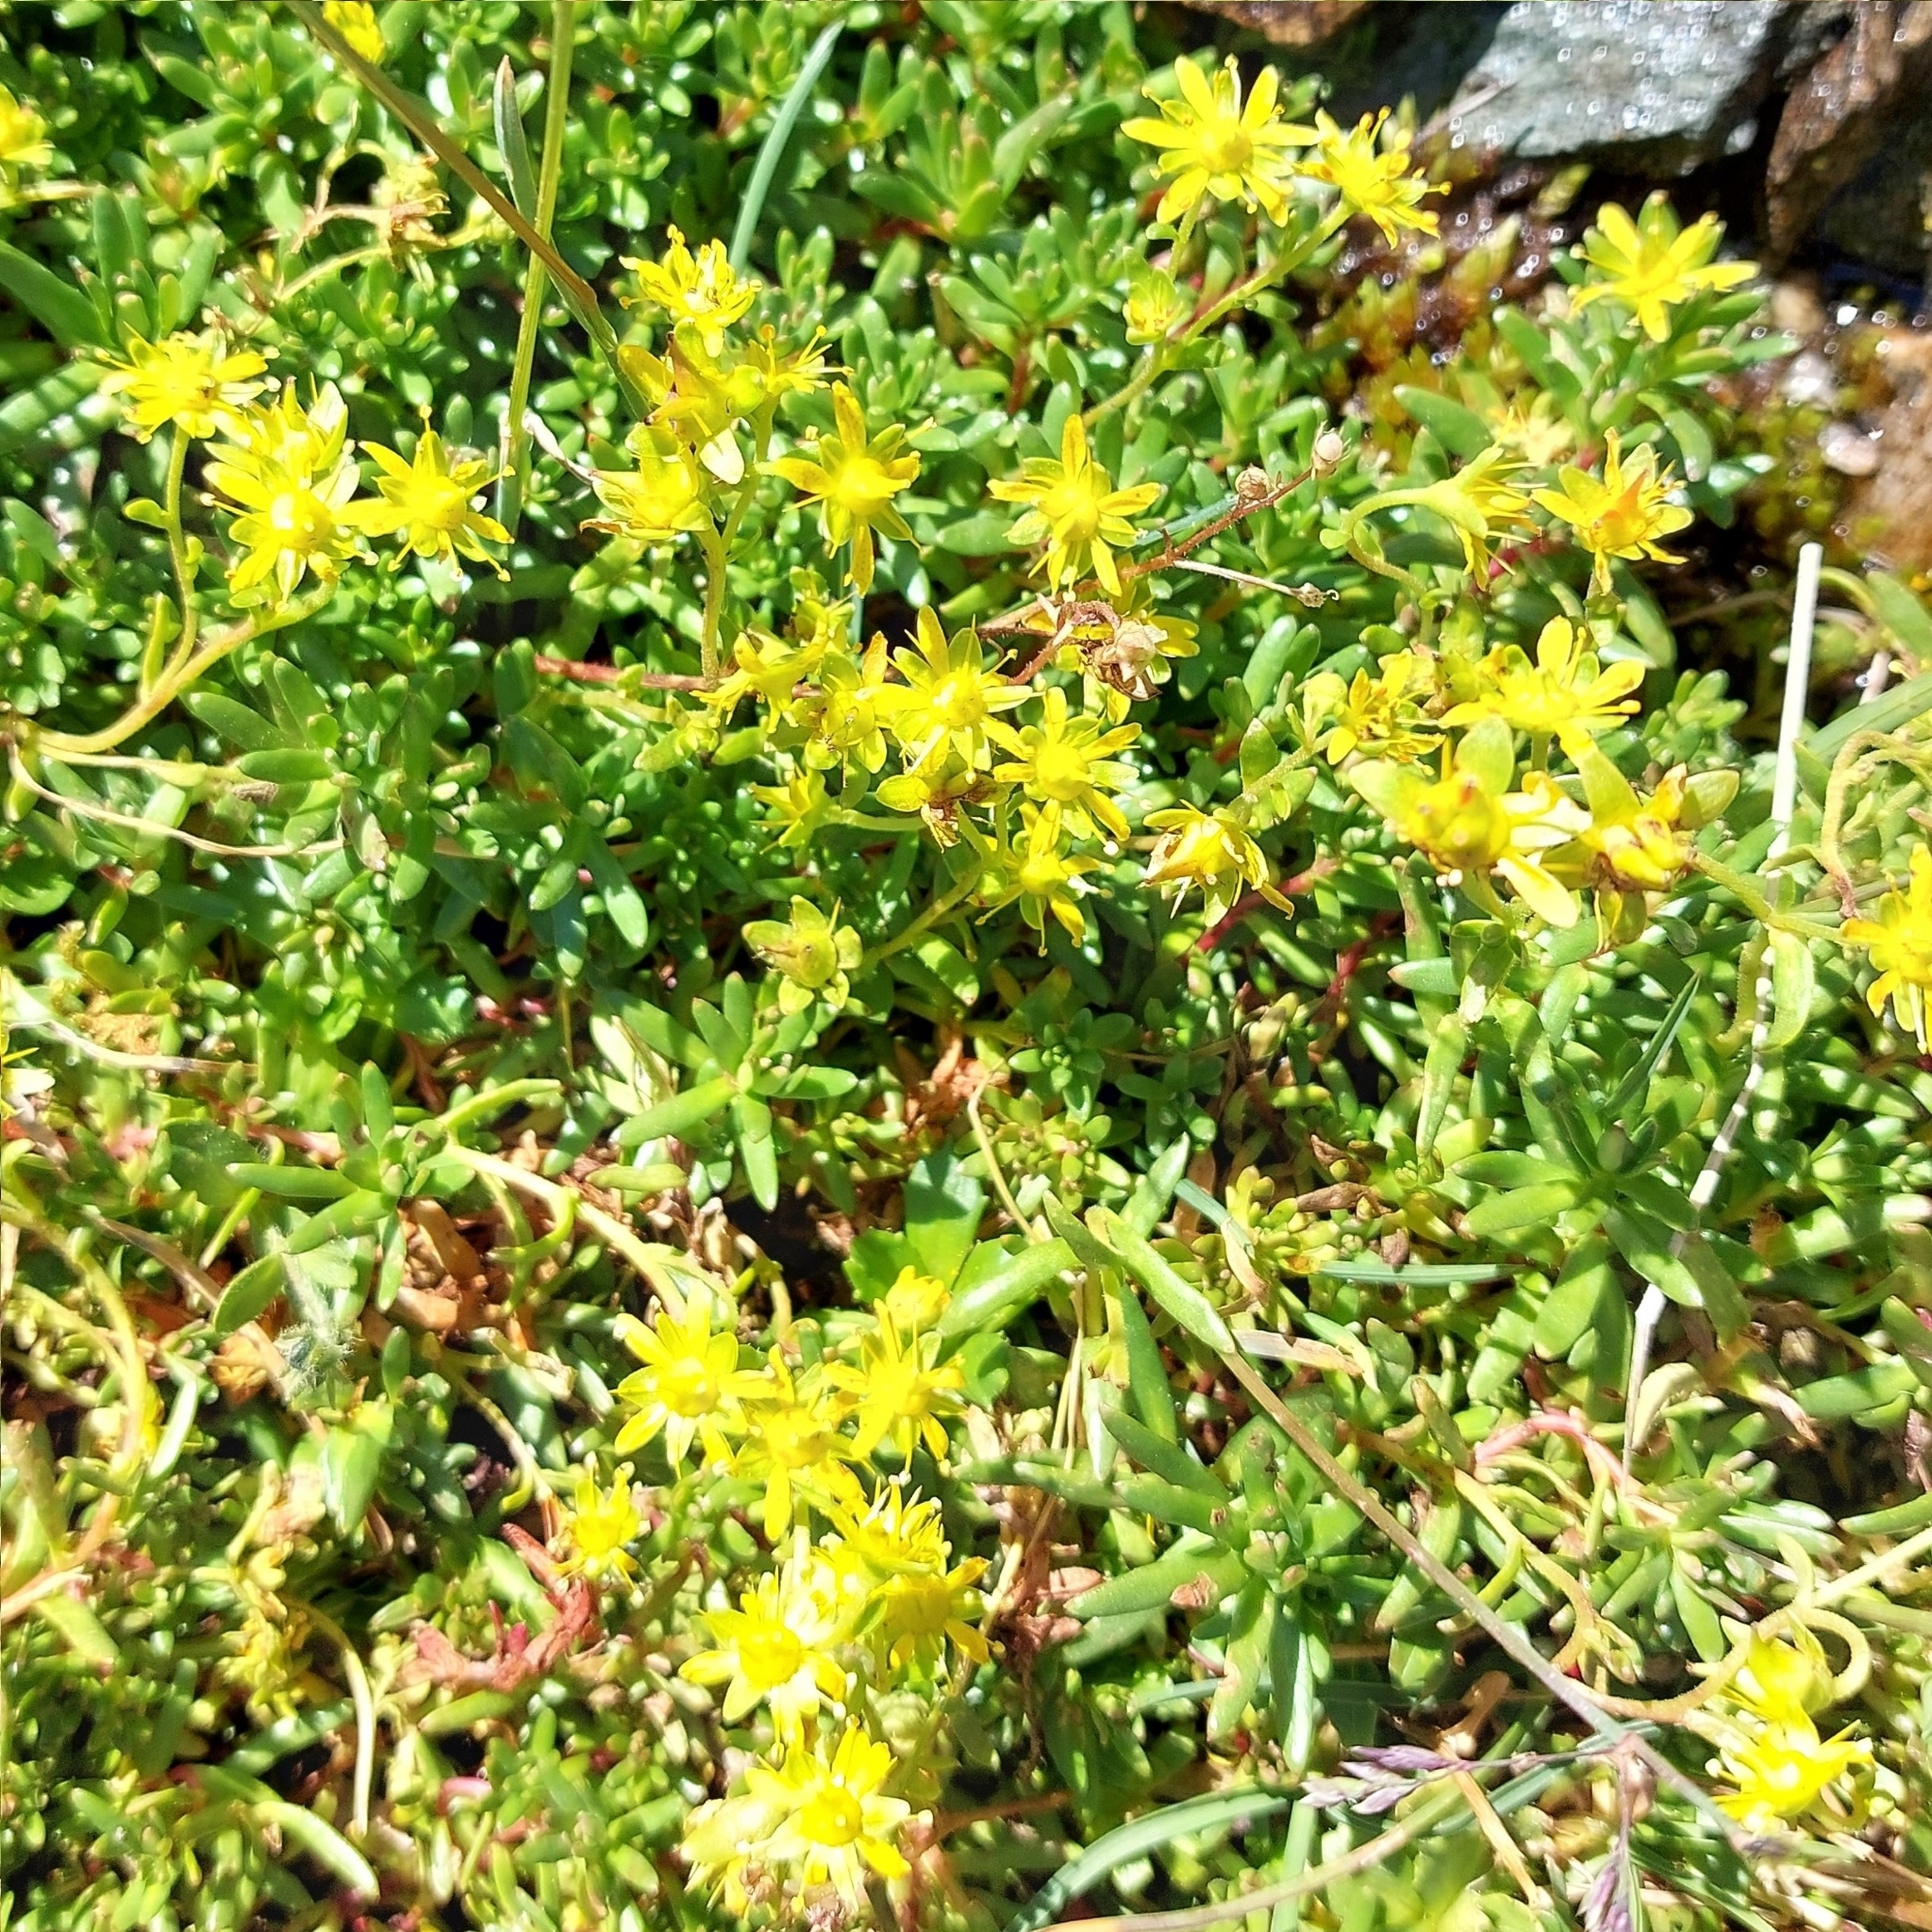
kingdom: Plantae
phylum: Tracheophyta
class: Magnoliopsida
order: Saxifragales
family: Saxifragaceae
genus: Saxifraga
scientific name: Saxifraga aizoides
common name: Yellow mountain saxifrage
